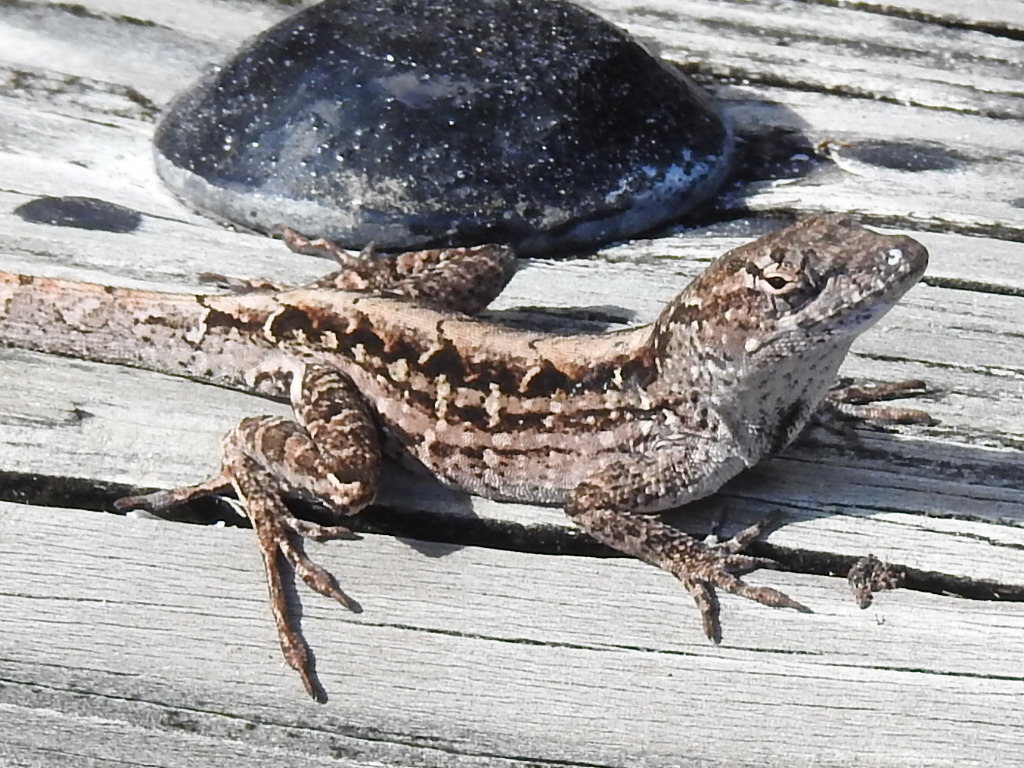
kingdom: Animalia
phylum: Chordata
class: Squamata
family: Dactyloidae
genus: Anolis
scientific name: Anolis sagrei
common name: Brown anole
